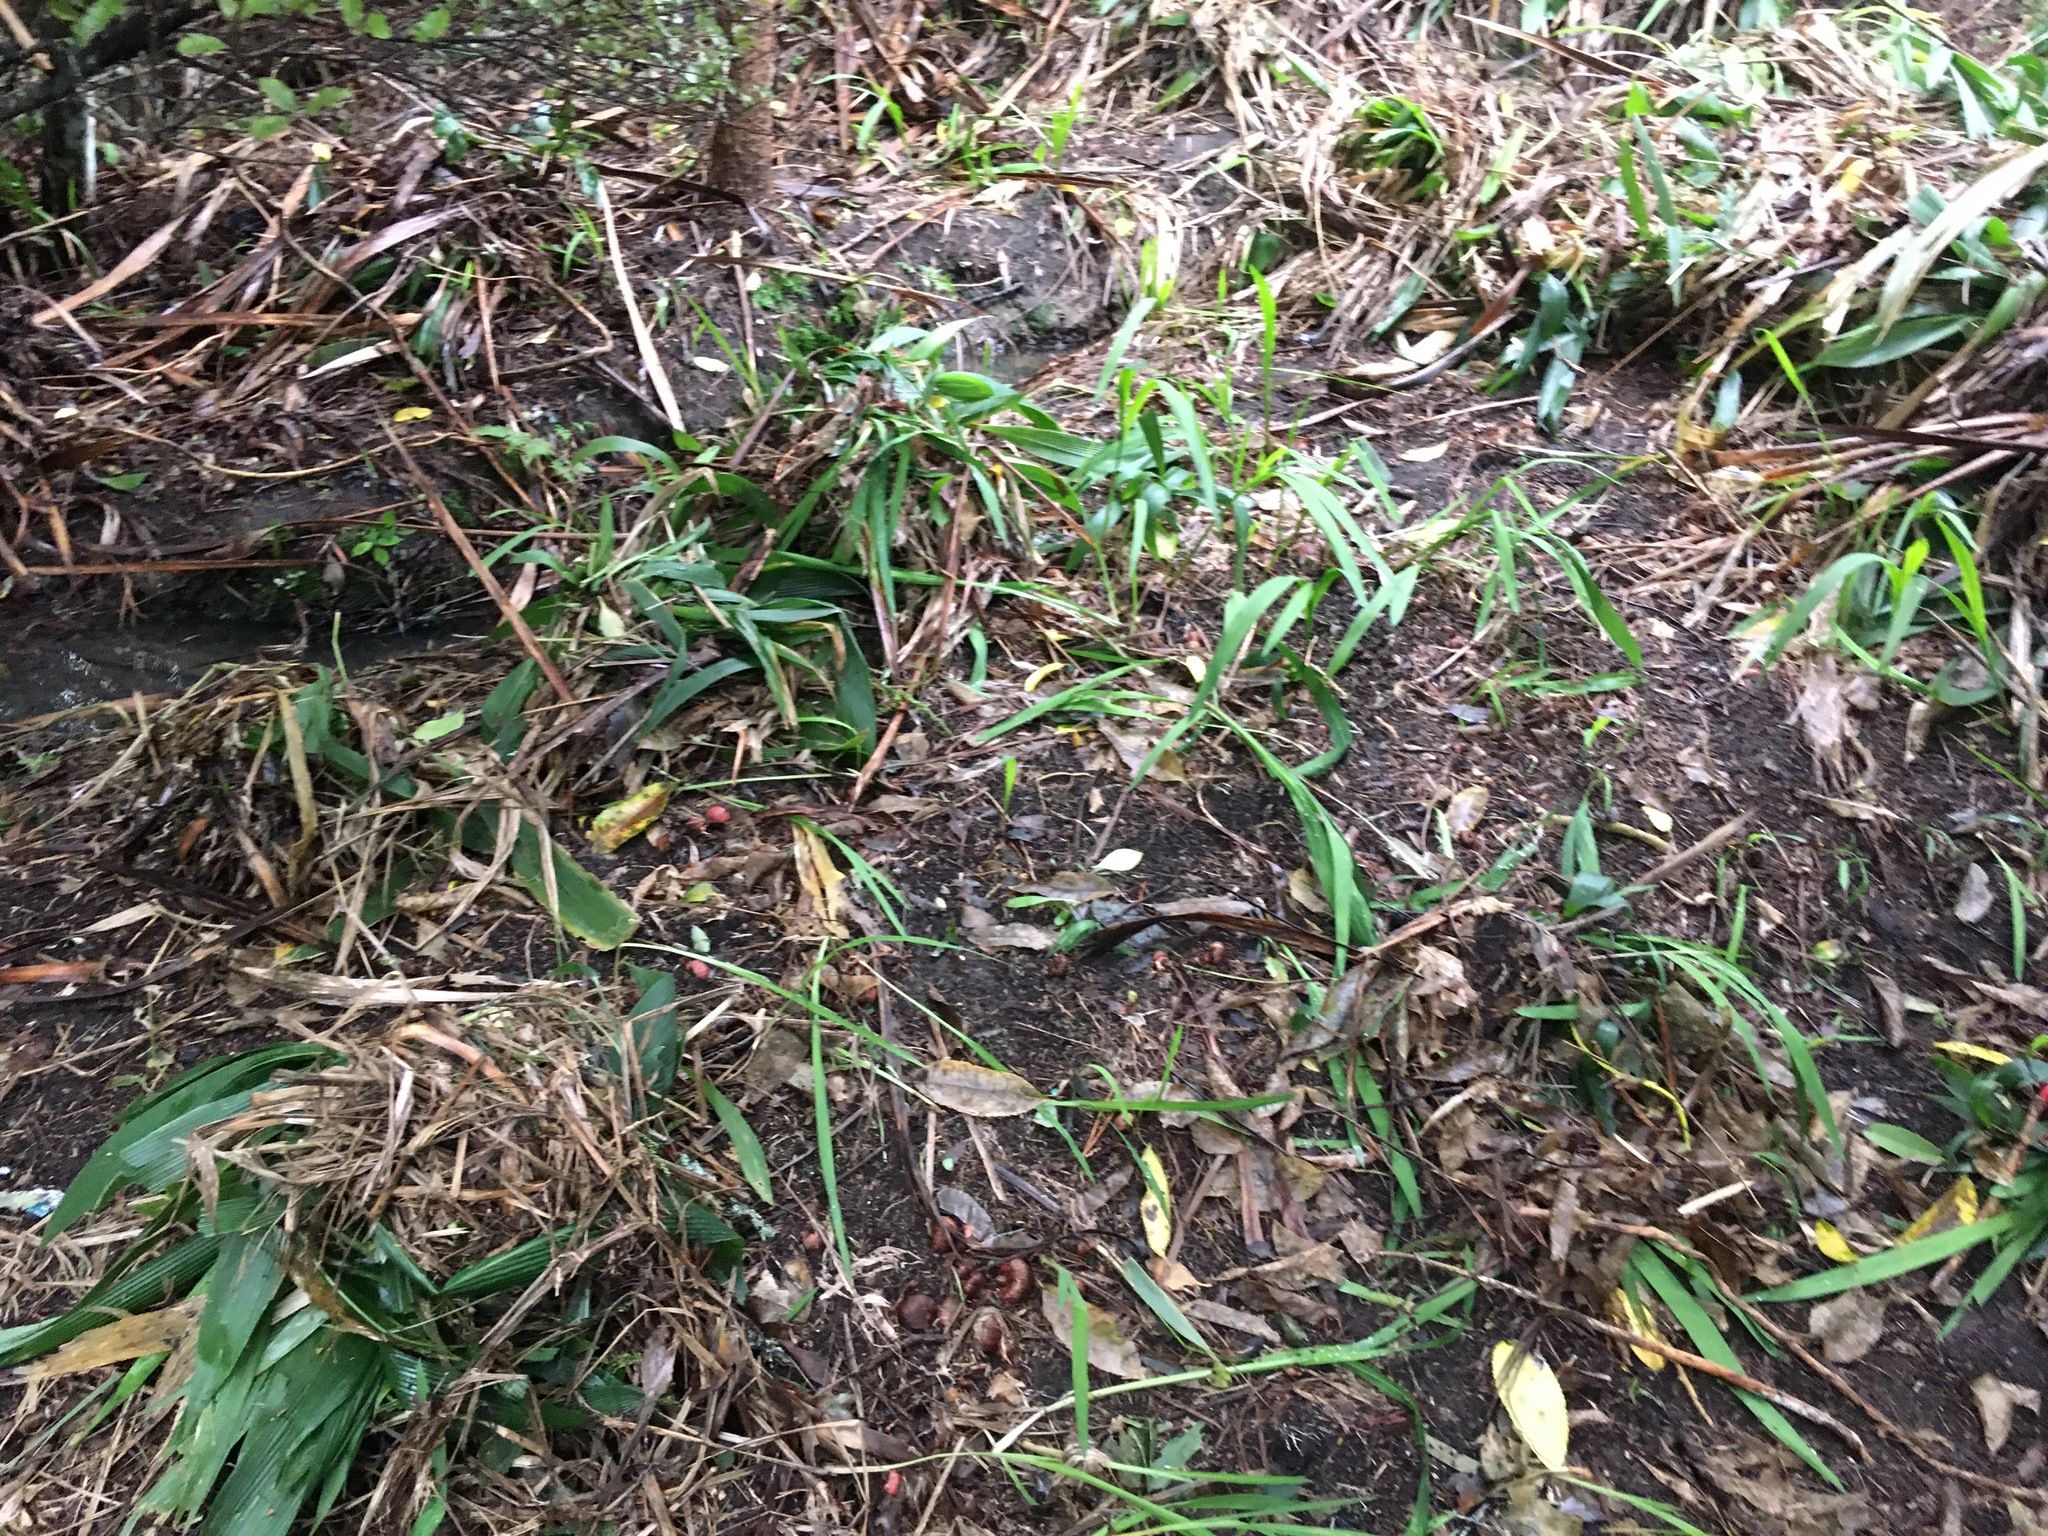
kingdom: Plantae
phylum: Tracheophyta
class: Liliopsida
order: Asparagales
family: Iridaceae
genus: Crocosmia
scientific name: Crocosmia crocosmiiflora
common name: Montbretia
